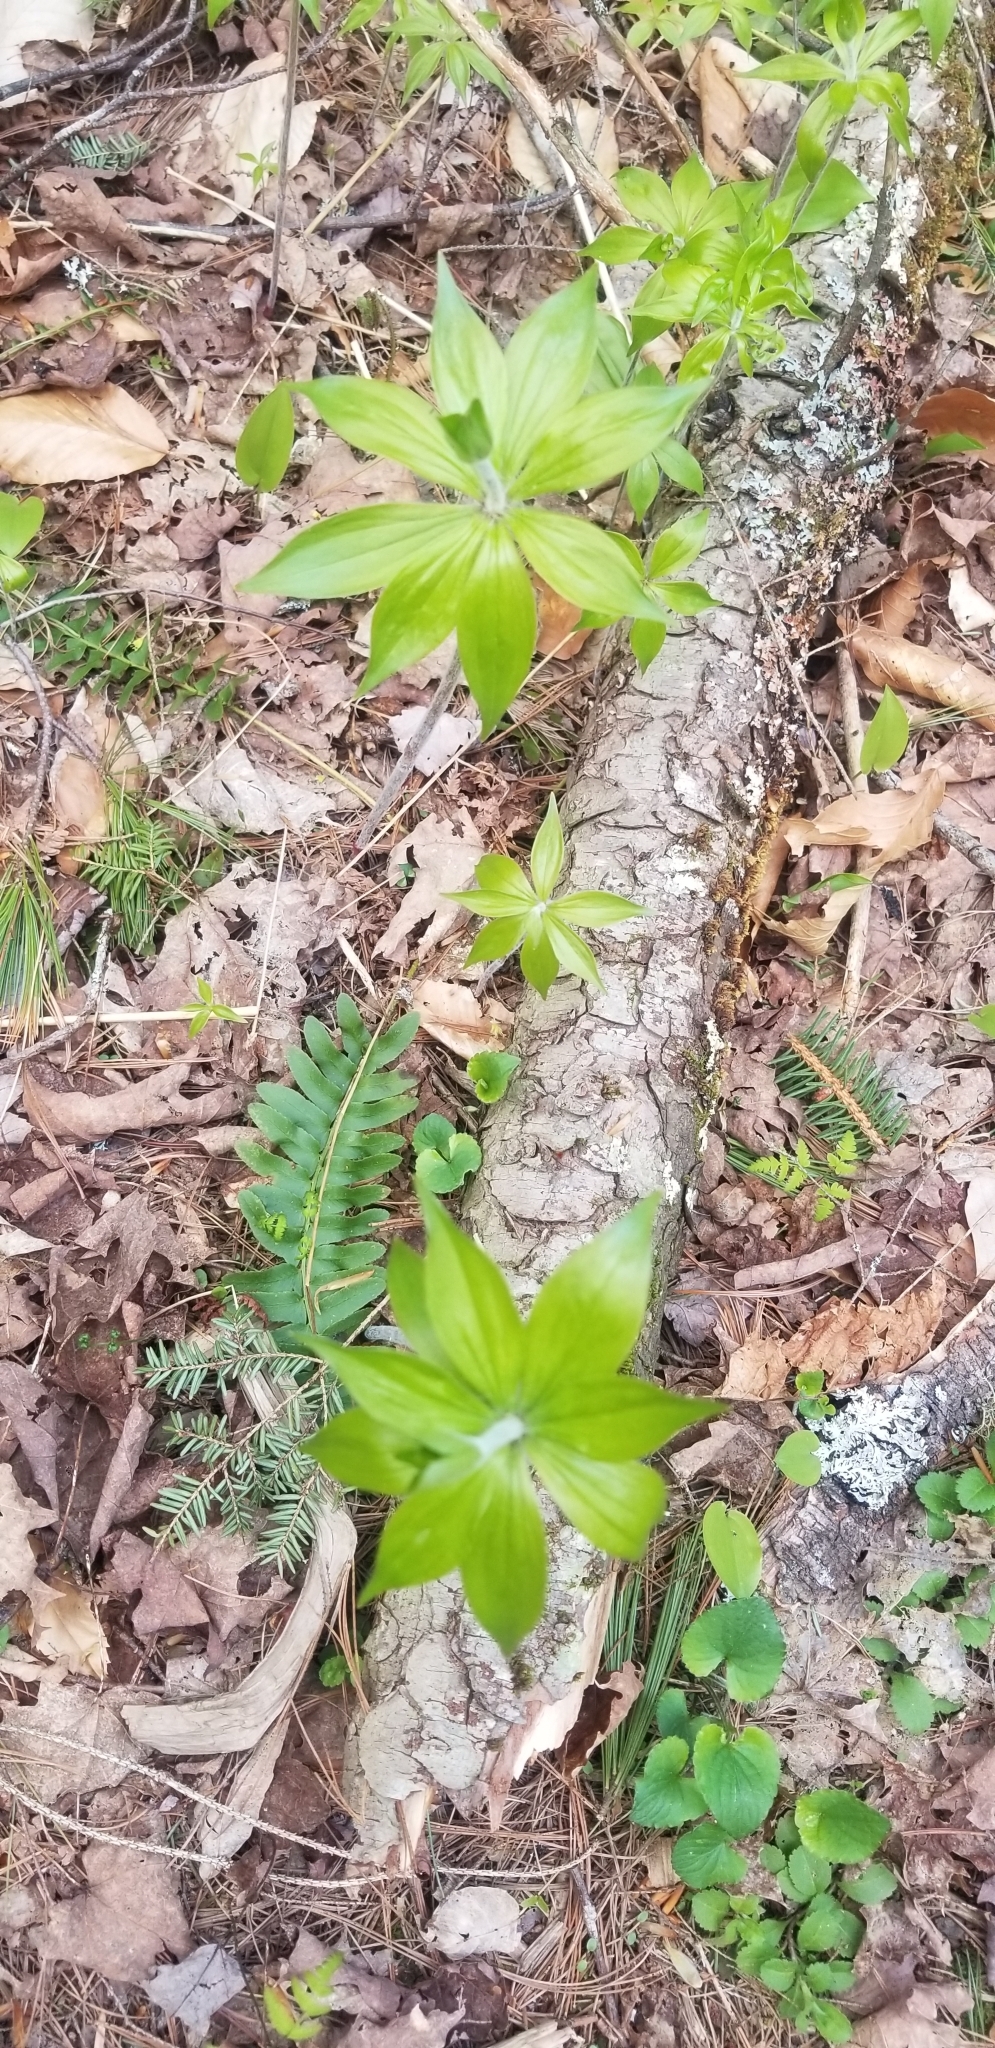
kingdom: Plantae
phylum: Tracheophyta
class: Liliopsida
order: Liliales
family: Liliaceae
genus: Medeola
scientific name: Medeola virginiana
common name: Indian cucumber-root
